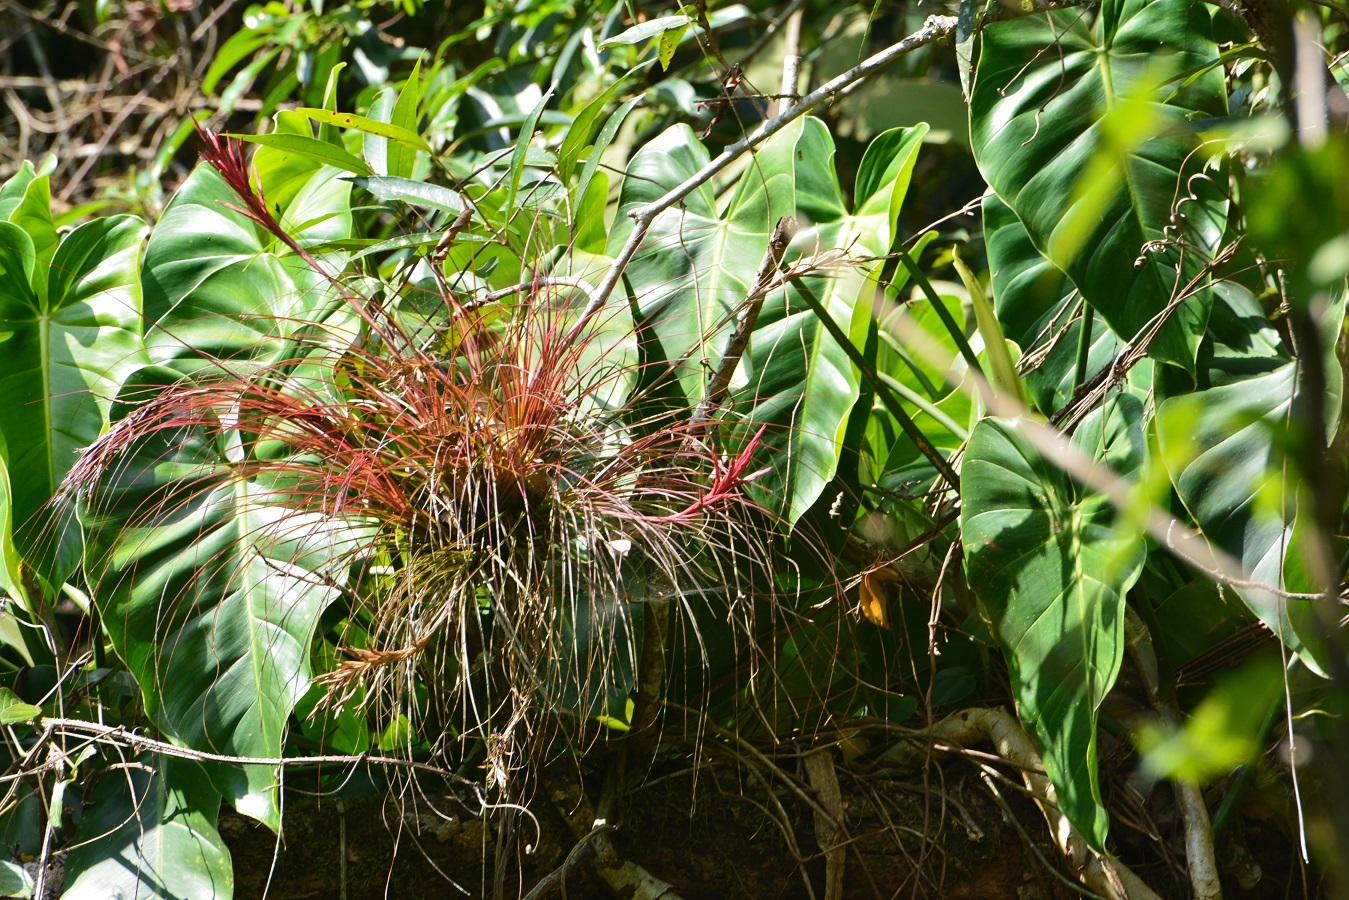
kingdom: Plantae
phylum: Tracheophyta
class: Liliopsida
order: Poales
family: Bromeliaceae
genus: Tillandsia
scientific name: Tillandsia festucoides
